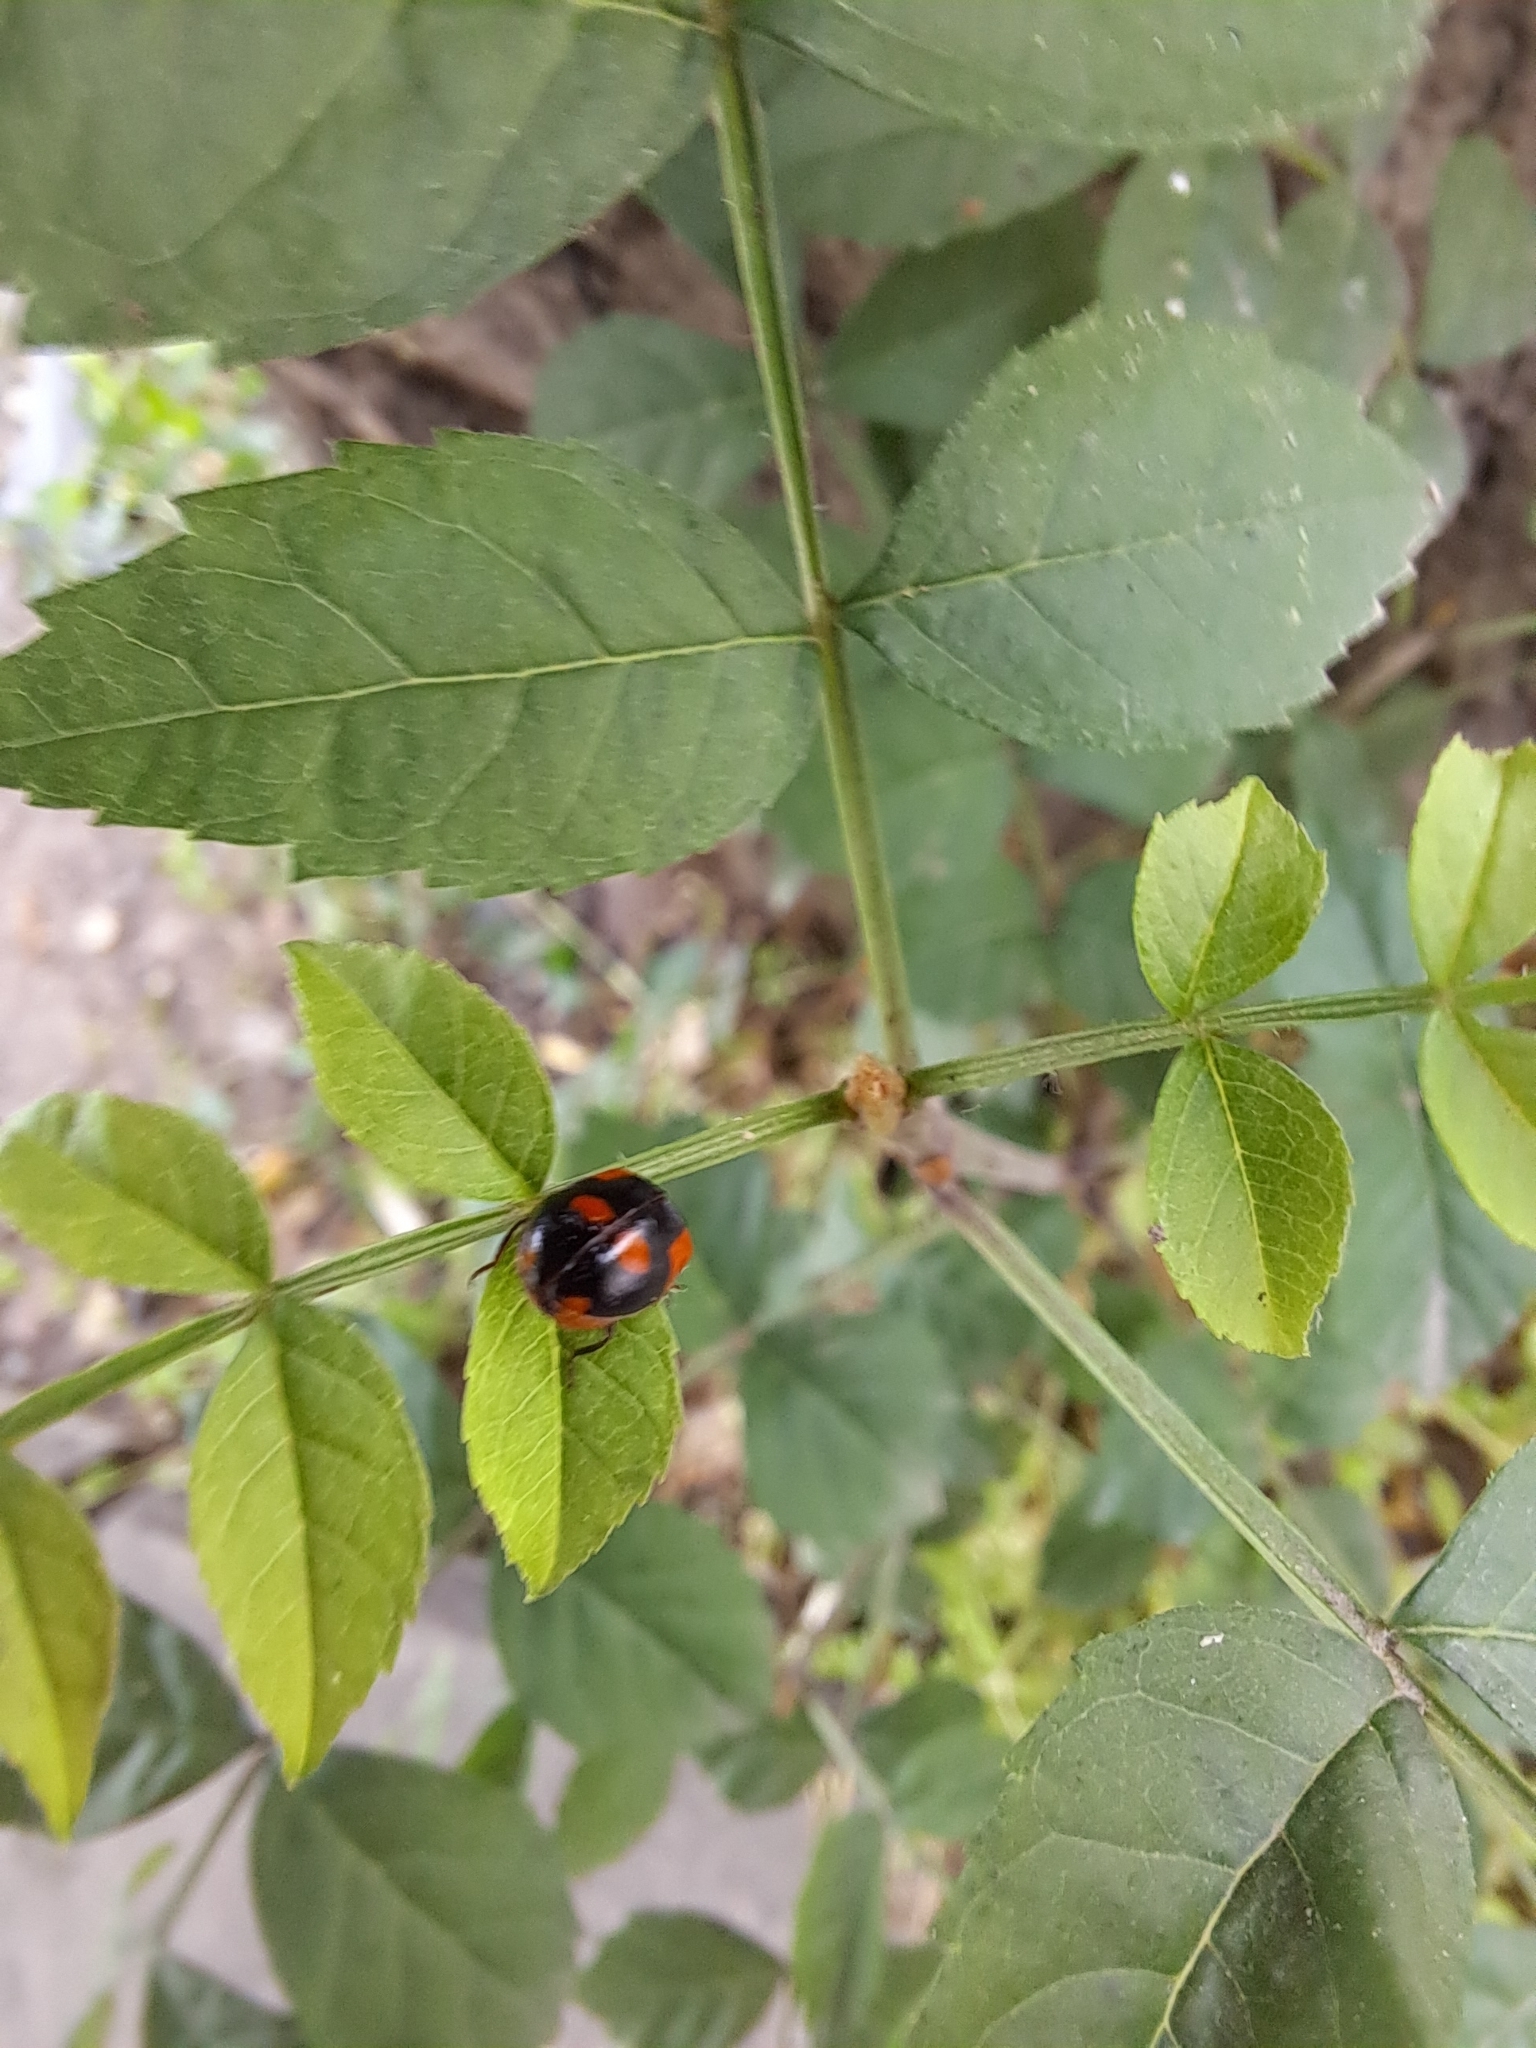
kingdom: Animalia
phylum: Arthropoda
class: Insecta
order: Coleoptera
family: Coccinellidae
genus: Adalia
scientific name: Adalia bipunctata
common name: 2-spot ladybird
